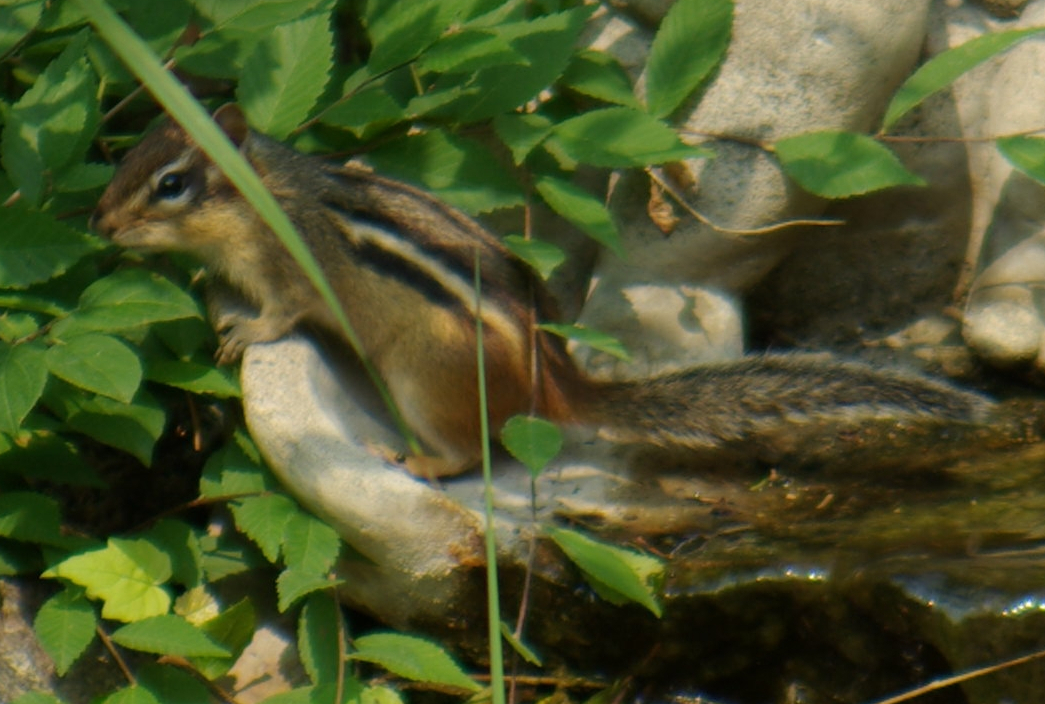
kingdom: Animalia
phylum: Chordata
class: Mammalia
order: Rodentia
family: Sciuridae
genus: Tamias
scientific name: Tamias striatus
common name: Eastern chipmunk
